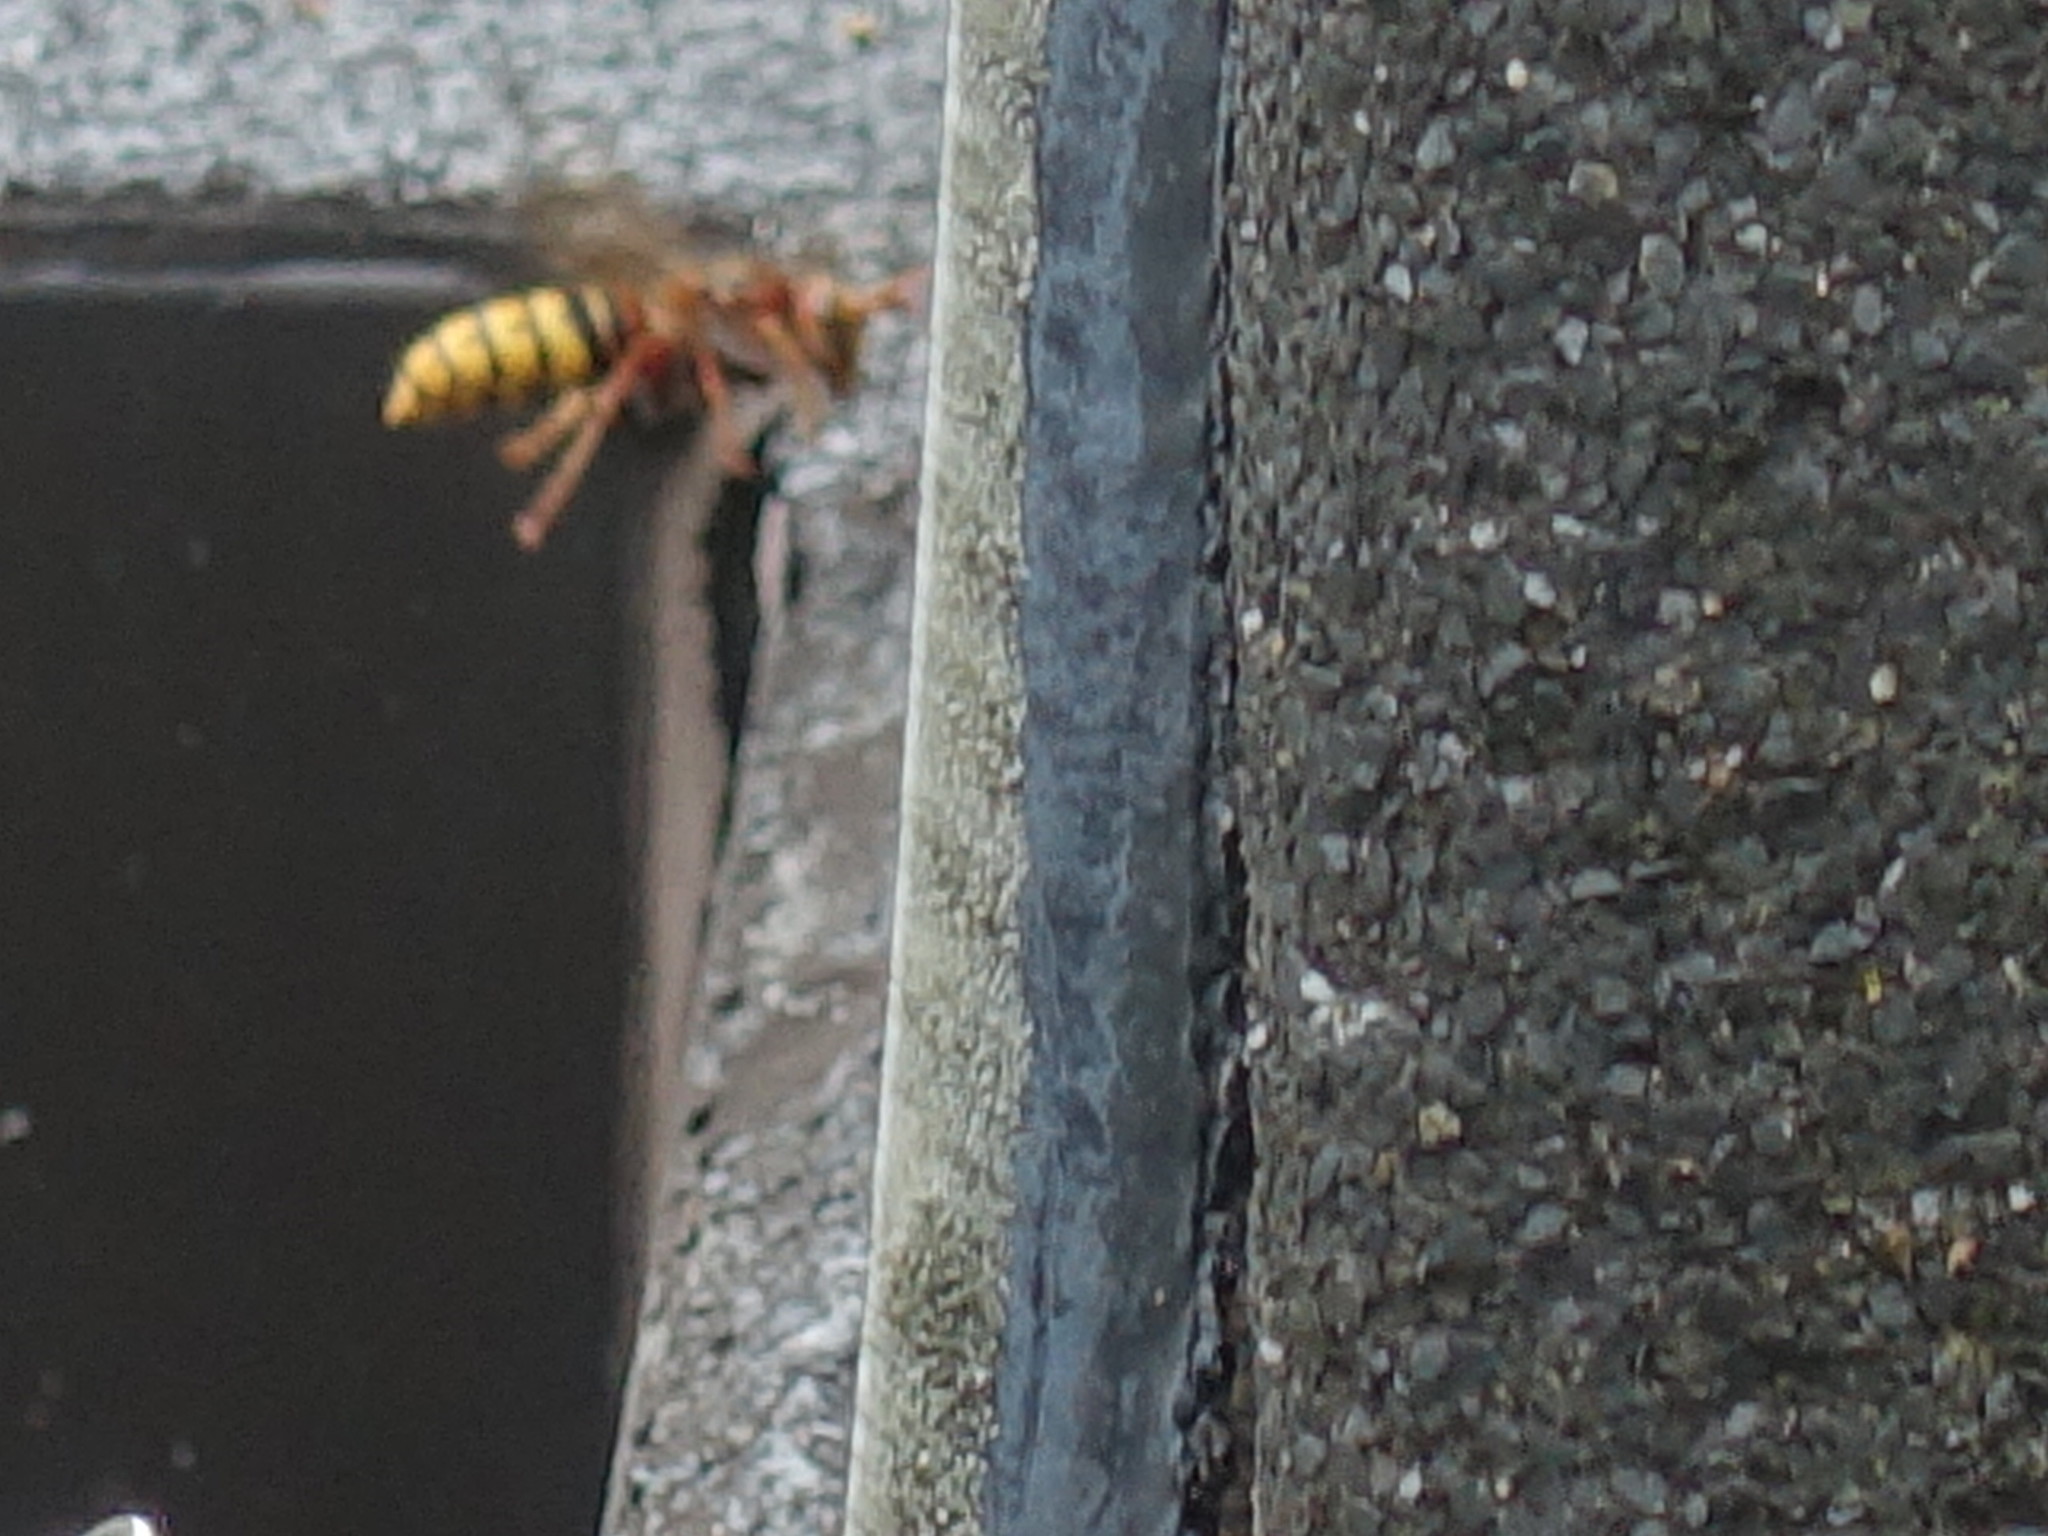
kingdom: Animalia
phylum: Arthropoda
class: Insecta
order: Hymenoptera
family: Vespidae
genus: Vespa
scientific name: Vespa crabro
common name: Hornet
